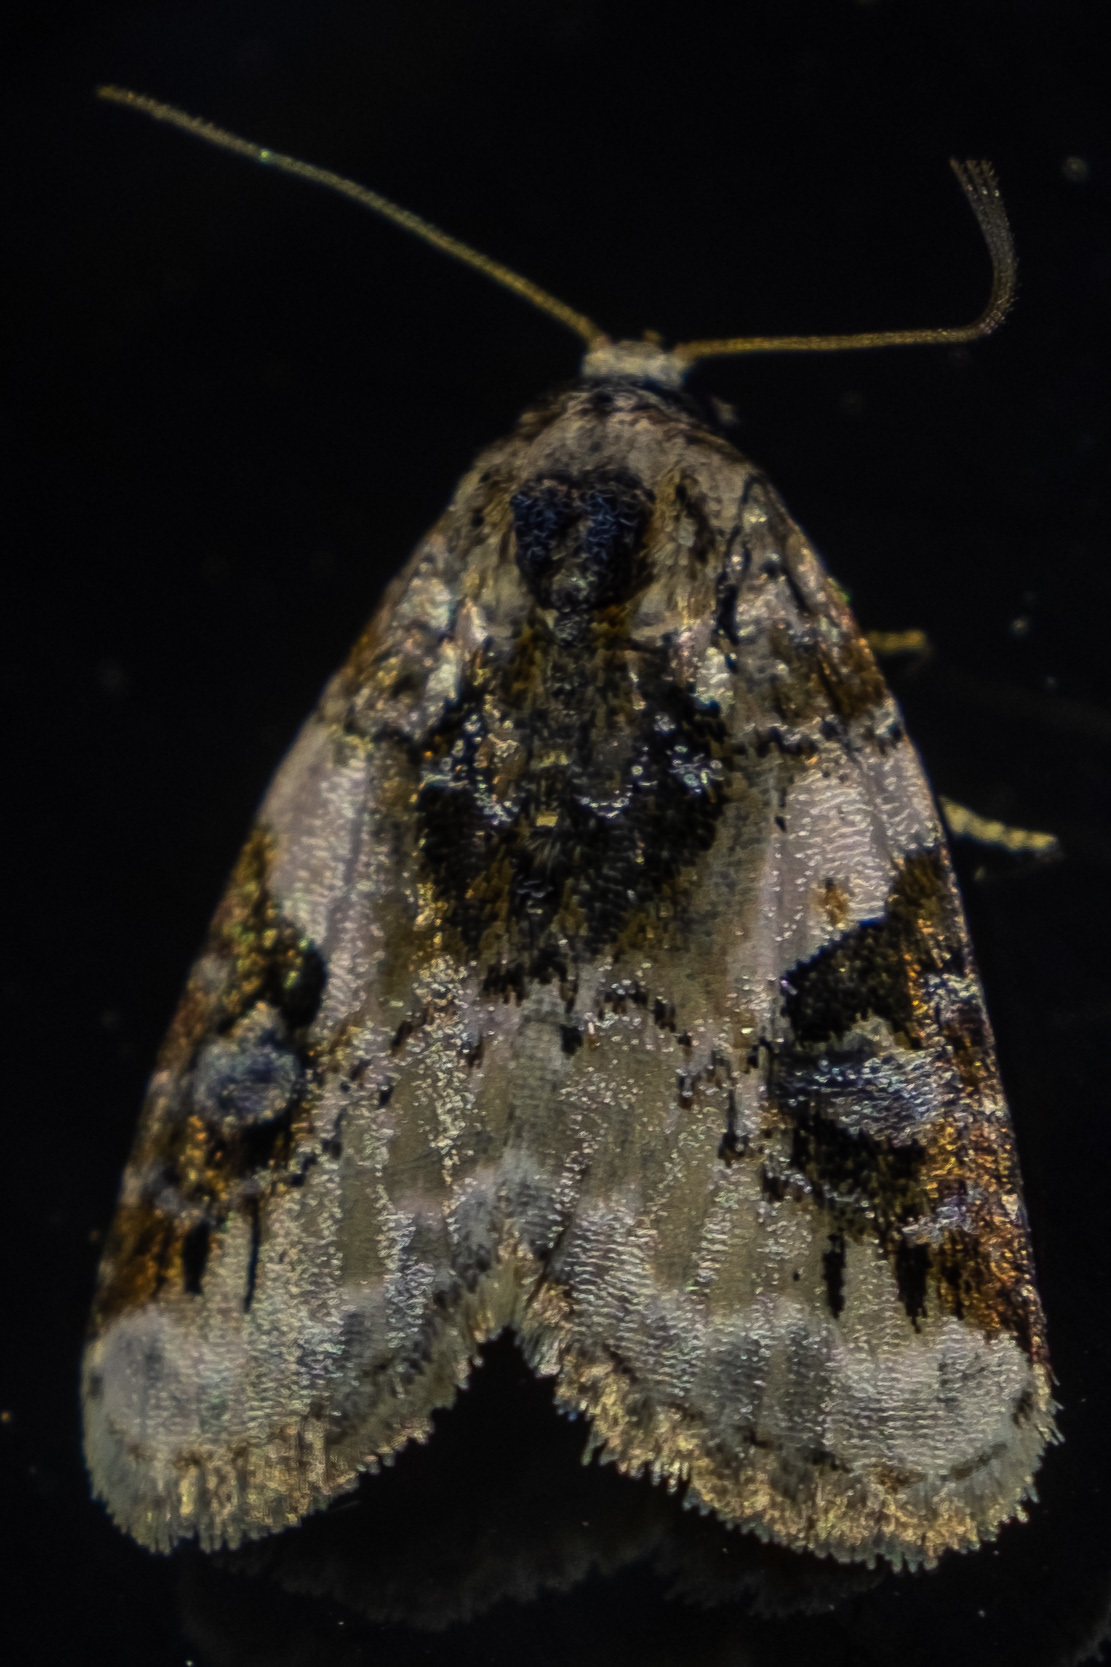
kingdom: Animalia
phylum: Arthropoda
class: Insecta
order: Lepidoptera
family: Noctuidae
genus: Pseudeustrotia
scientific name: Pseudeustrotia carneola
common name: Pink-barred lithacodia moth
